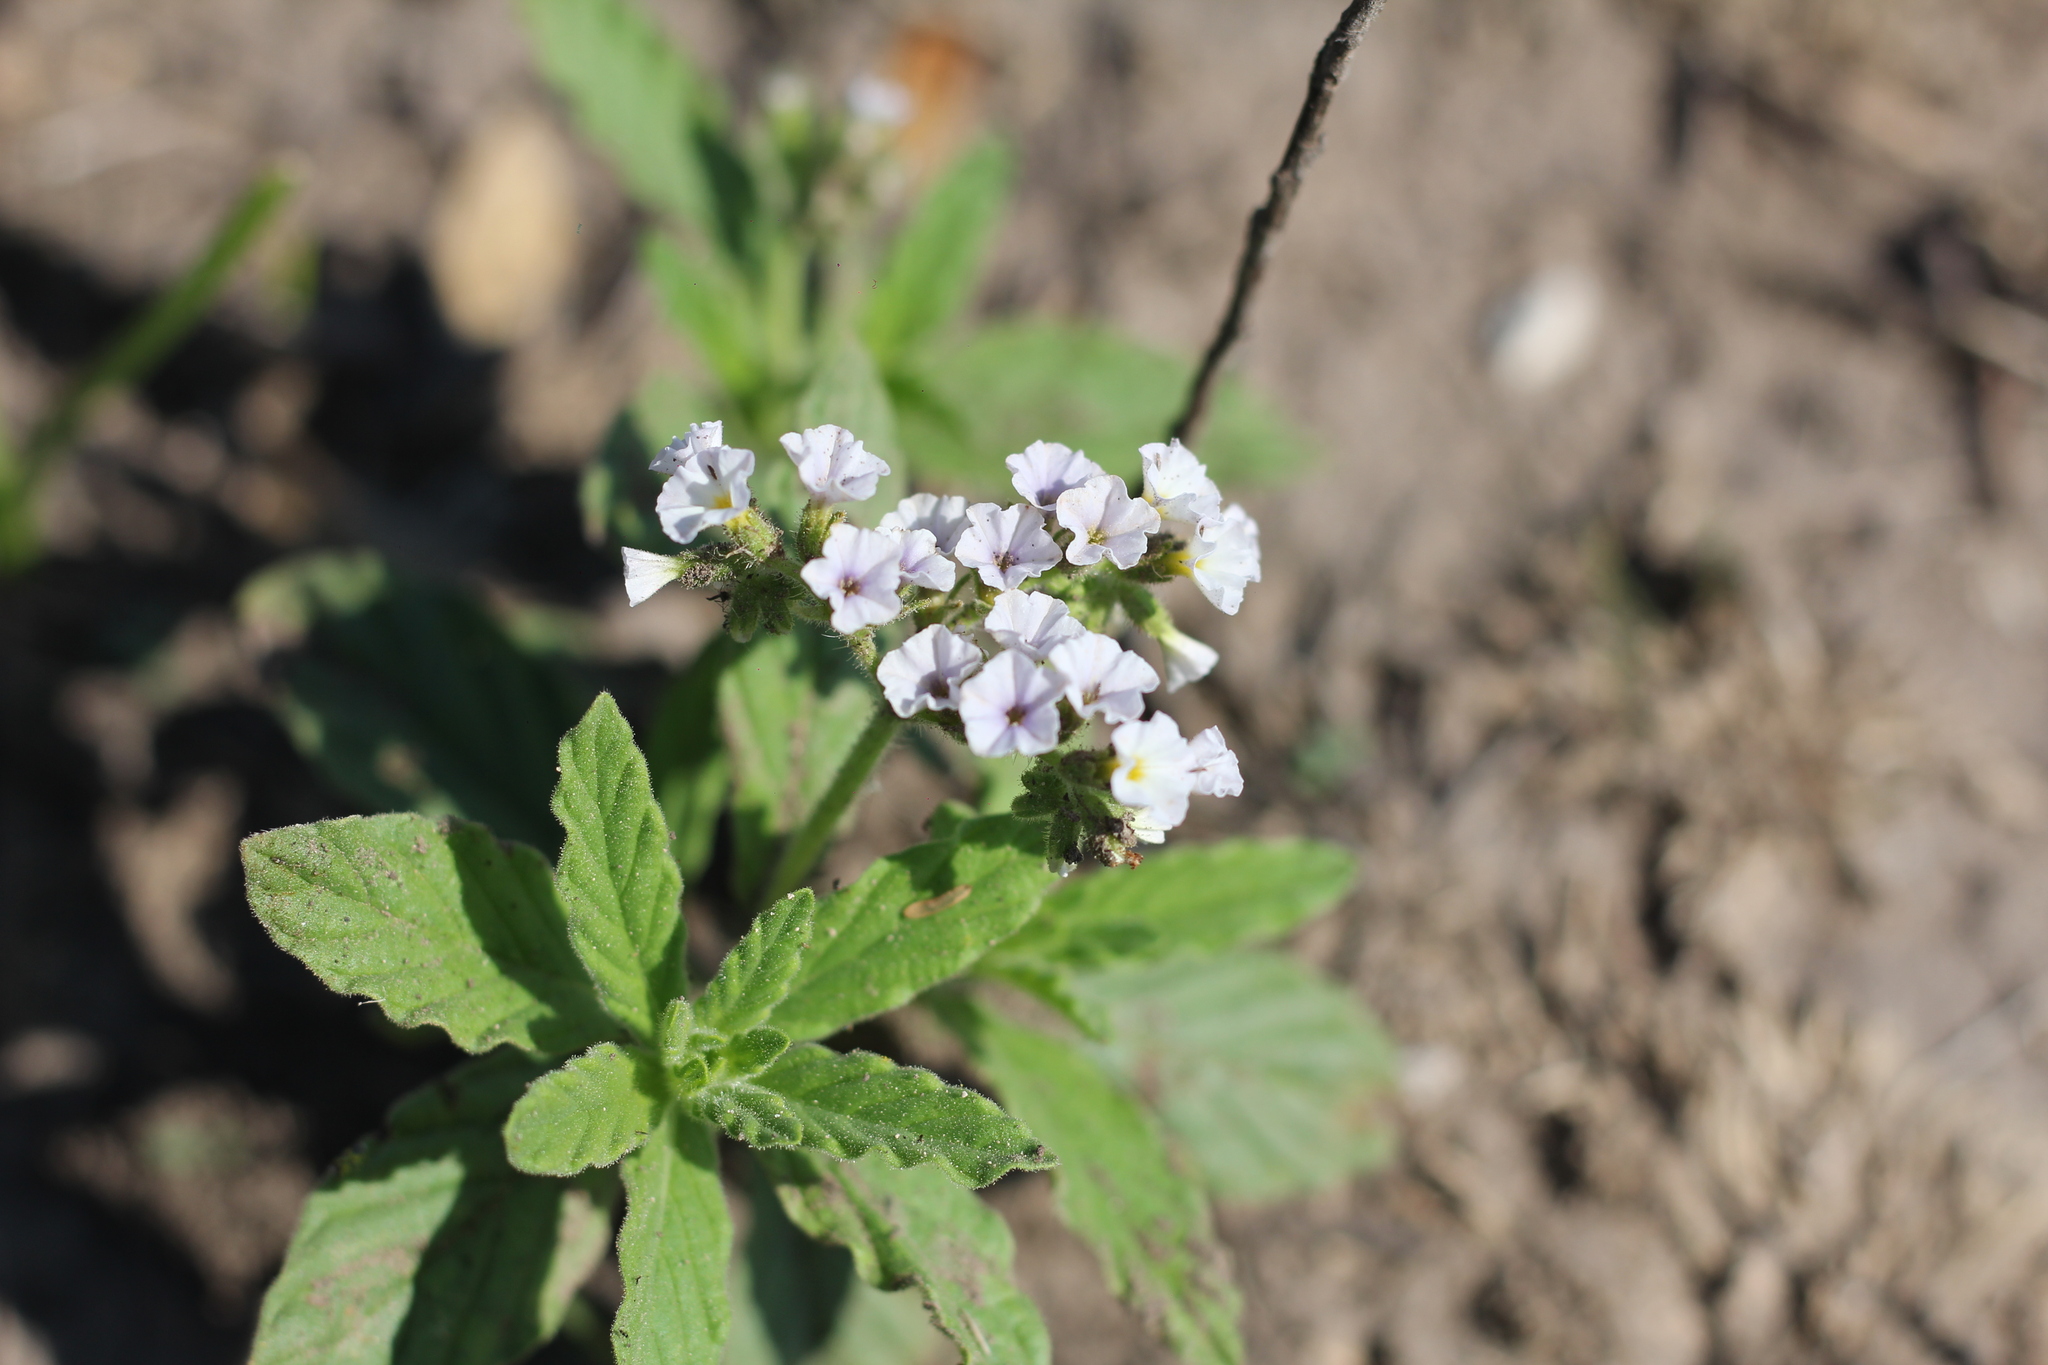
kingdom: Plantae
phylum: Tracheophyta
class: Magnoliopsida
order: Boraginales
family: Heliotropiaceae
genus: Heliotropium
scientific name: Heliotropium amplexicaule
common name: Clasping heliotrope
